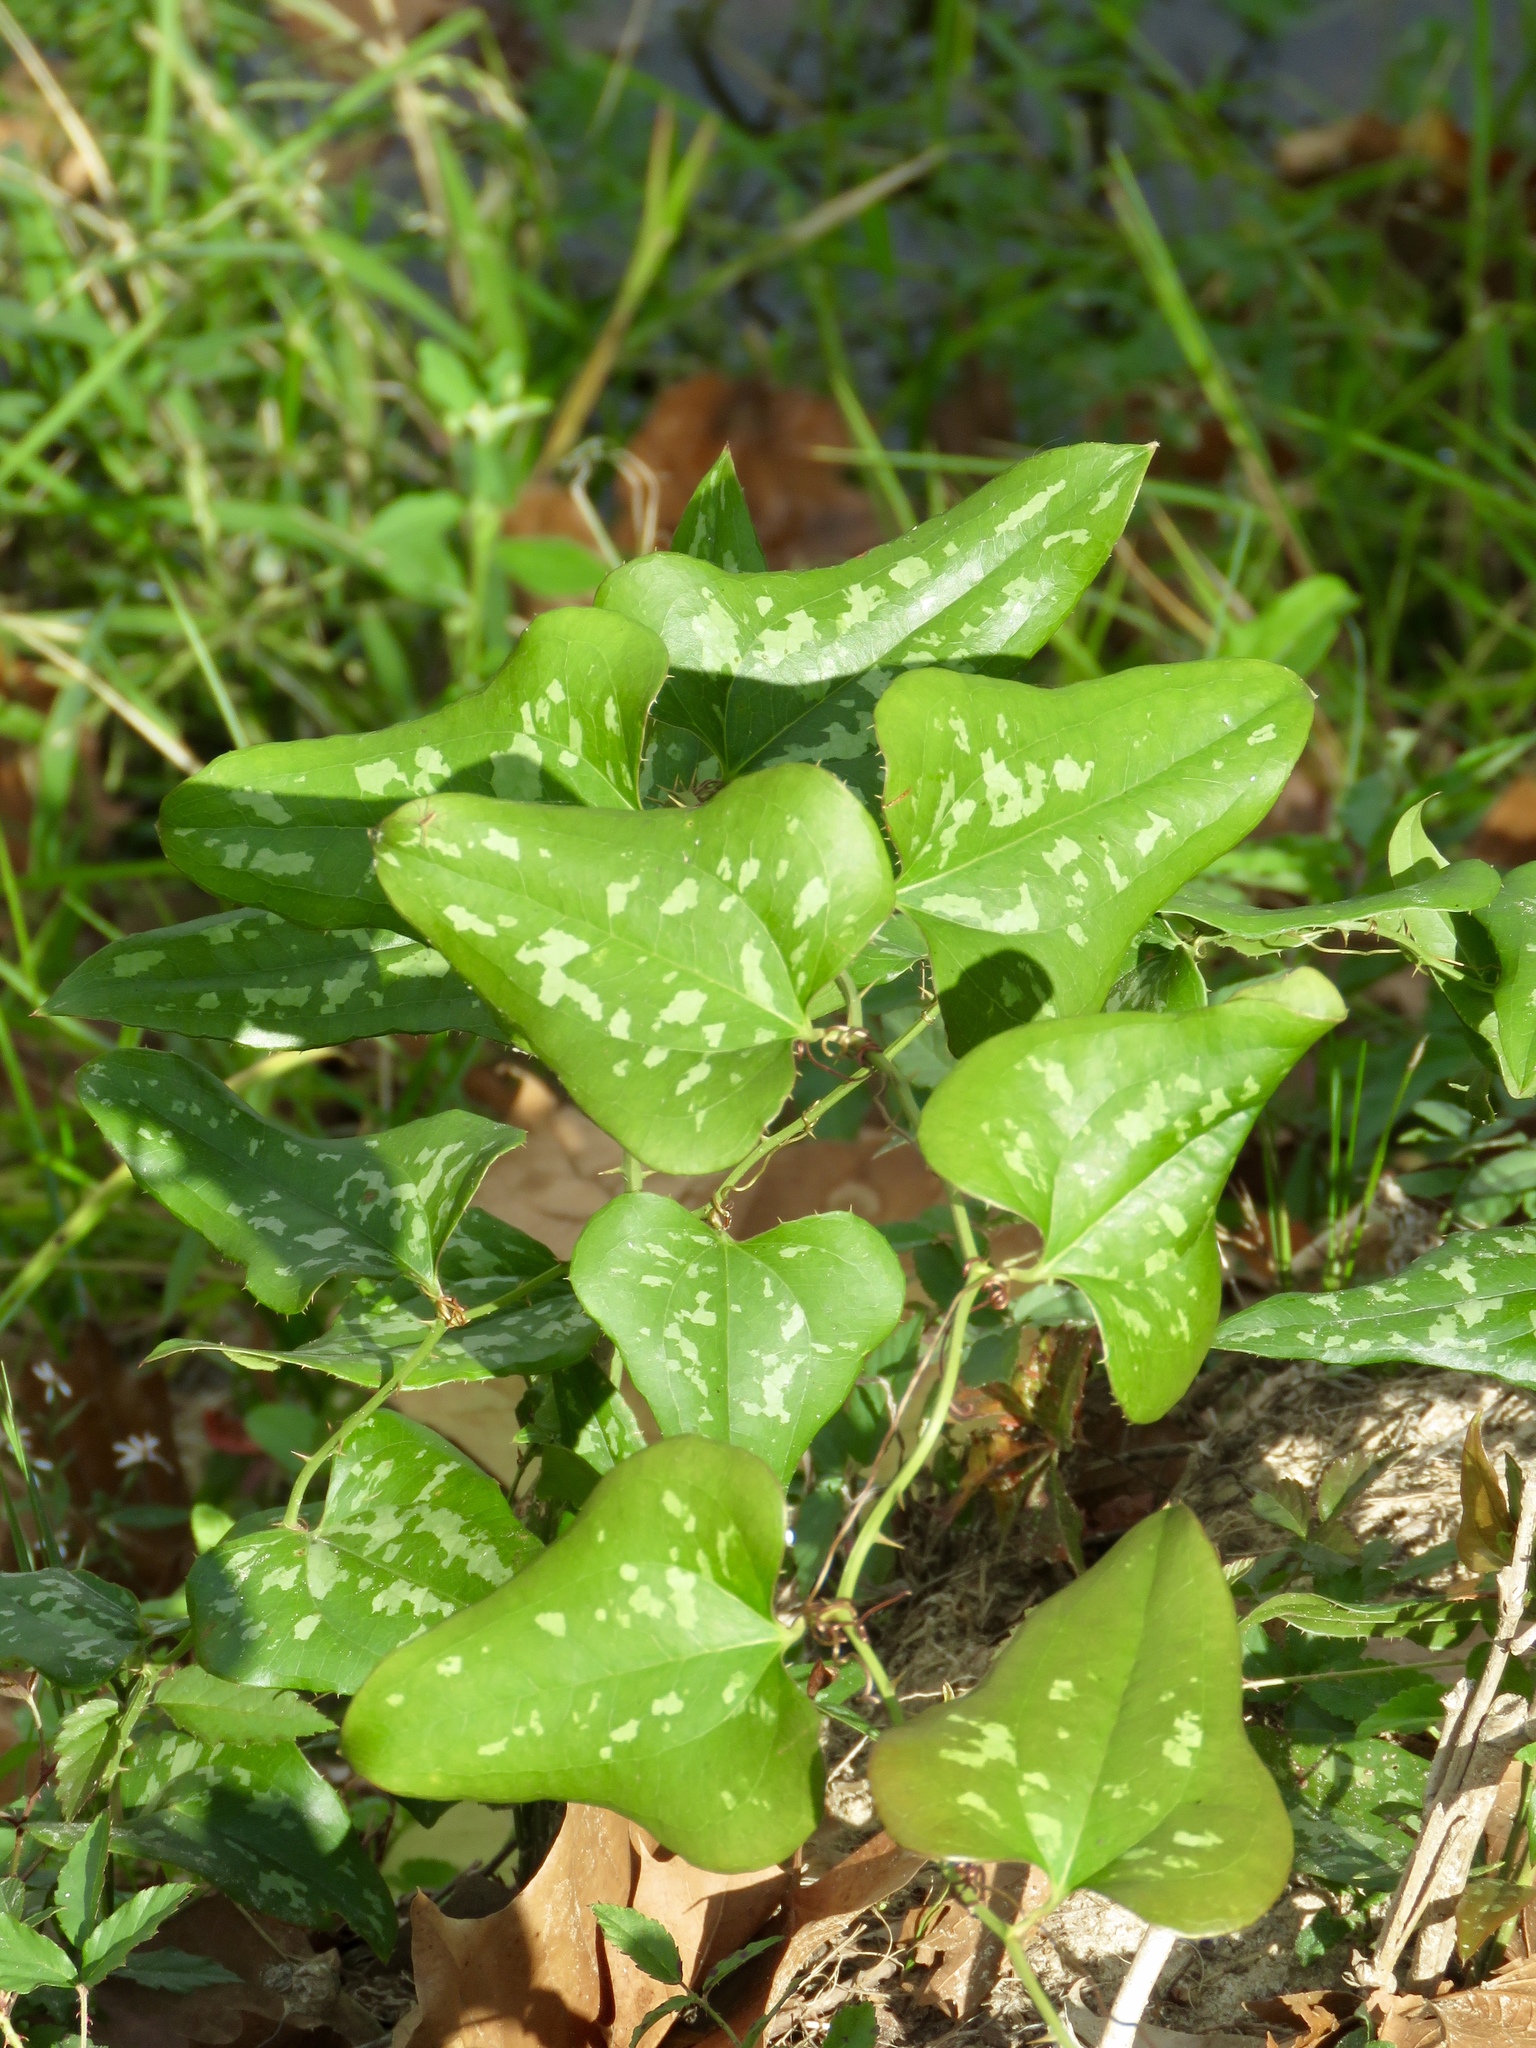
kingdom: Plantae
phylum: Tracheophyta
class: Liliopsida
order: Liliales
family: Smilacaceae
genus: Smilax
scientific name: Smilax bona-nox
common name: Catbrier
